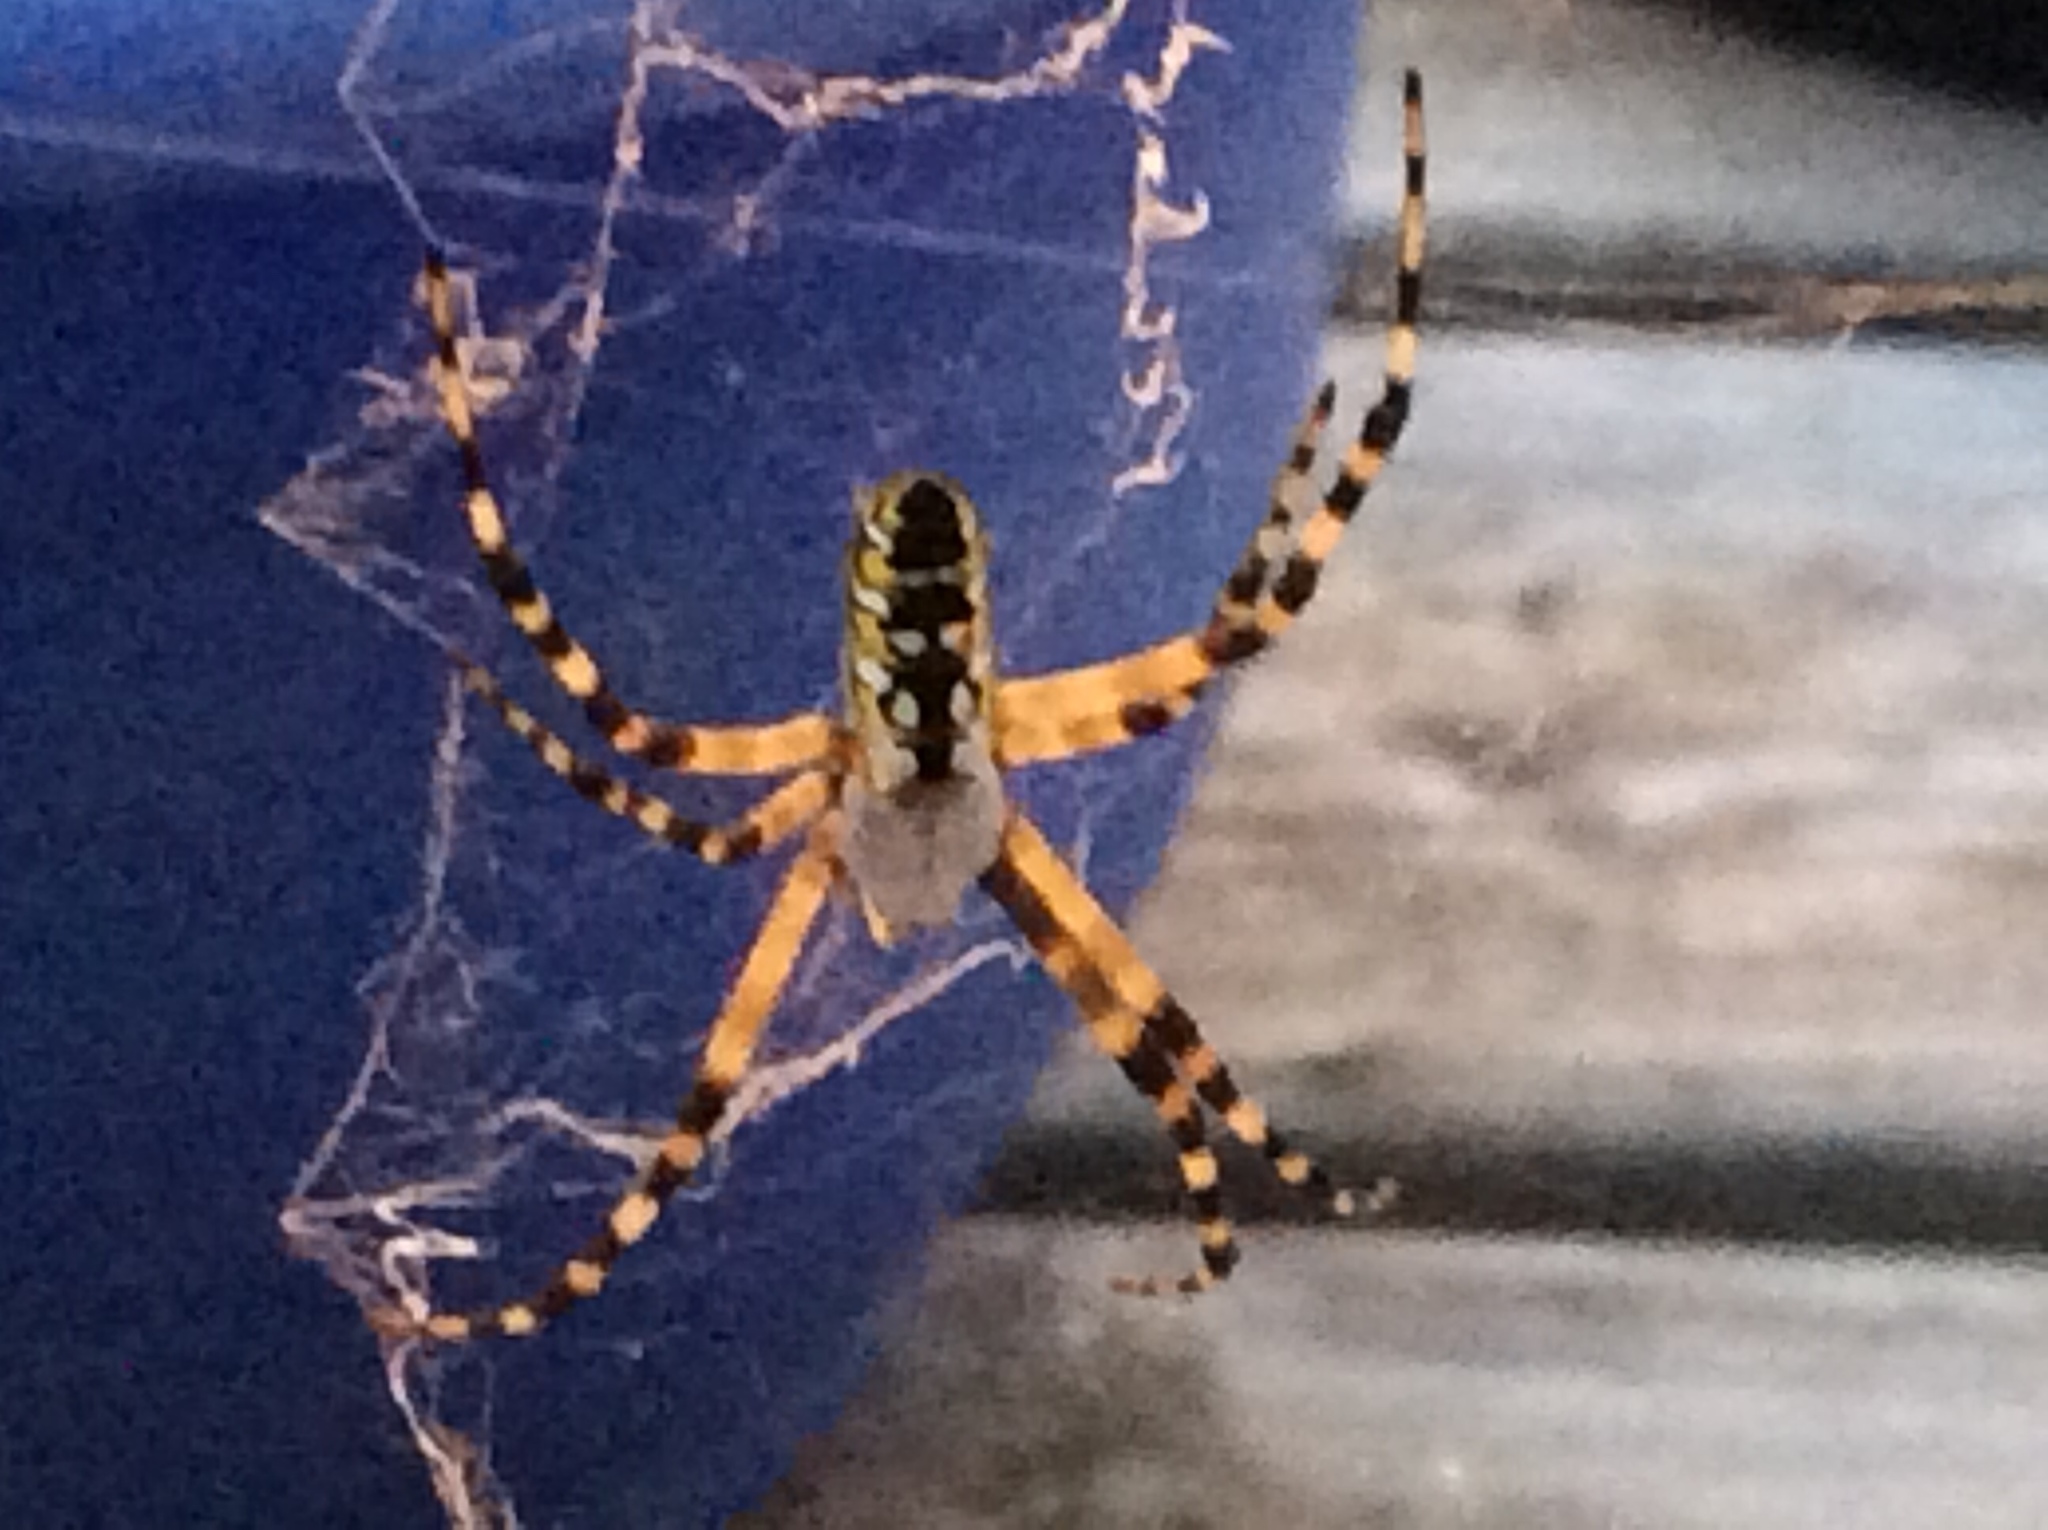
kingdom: Animalia
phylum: Arthropoda
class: Arachnida
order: Araneae
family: Araneidae
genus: Argiope
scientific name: Argiope aurantia
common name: Orb weavers
